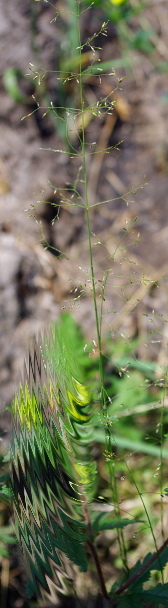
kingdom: Plantae
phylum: Tracheophyta
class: Liliopsida
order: Poales
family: Poaceae
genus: Poa
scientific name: Poa palustris
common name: Swamp meadow-grass
